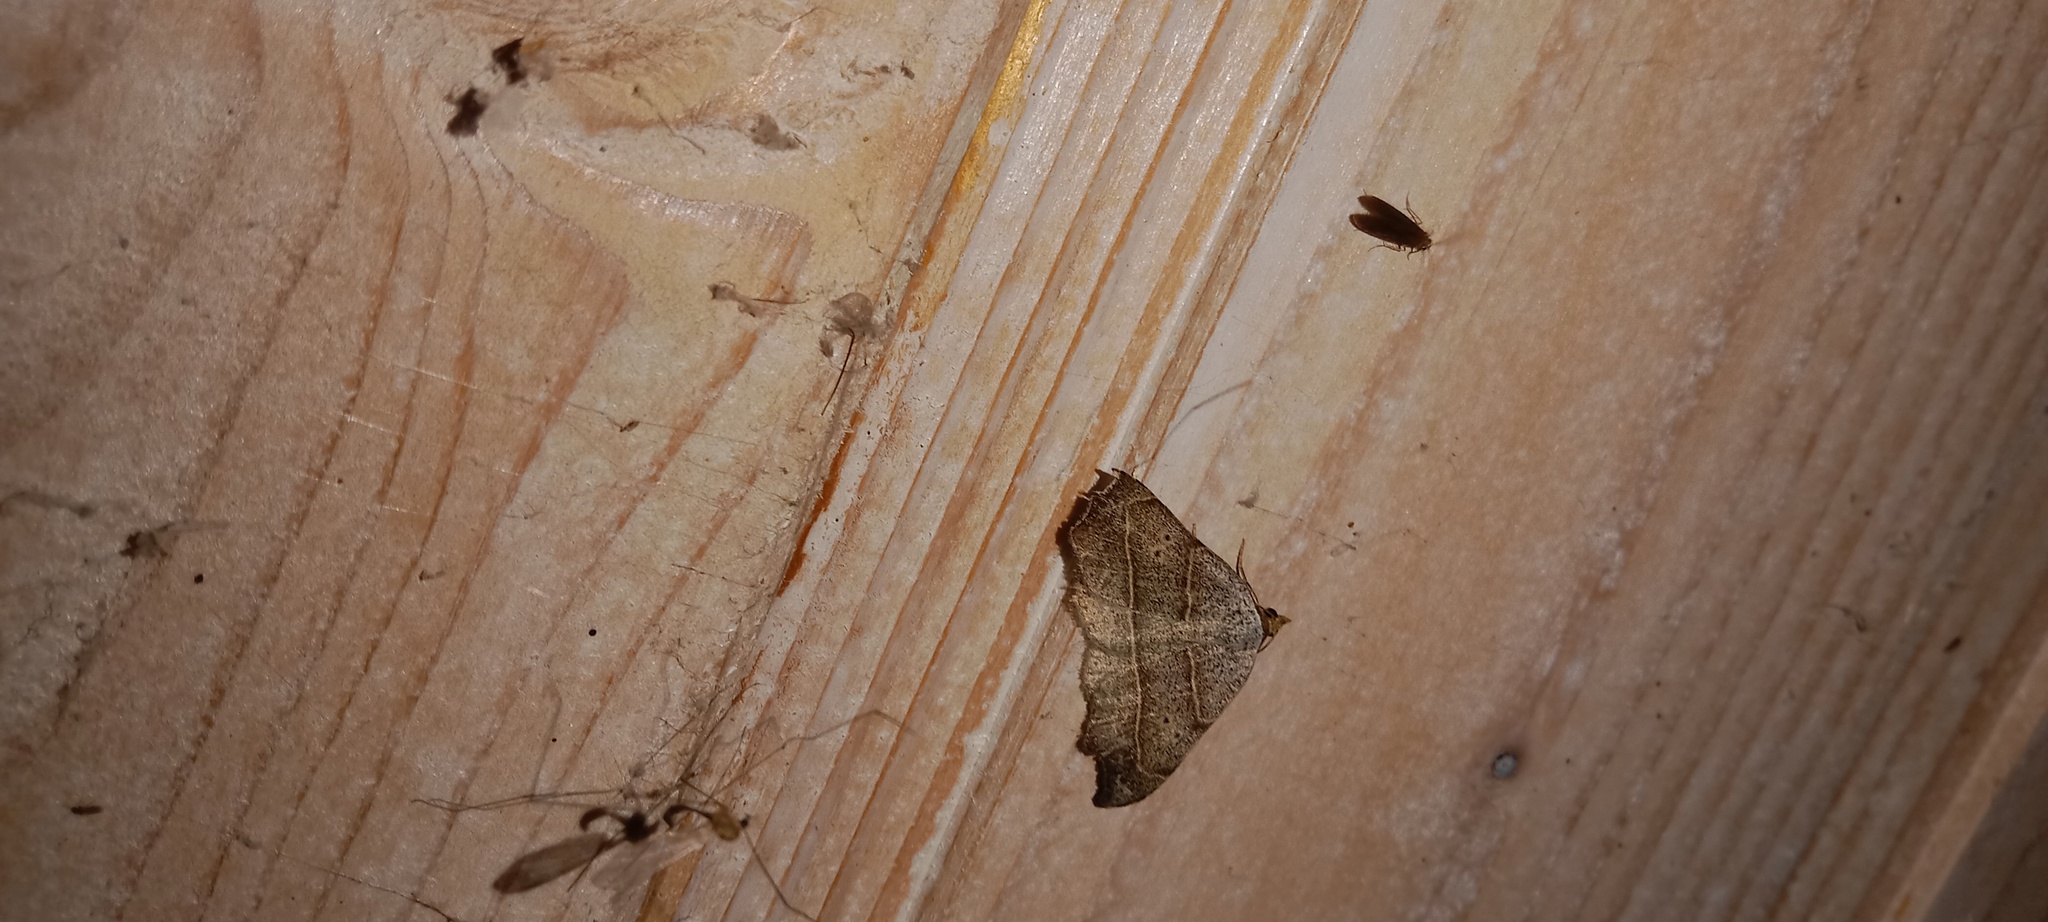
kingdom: Animalia
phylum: Arthropoda
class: Insecta
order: Lepidoptera
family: Erebidae
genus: Laspeyria
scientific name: Laspeyria flexula
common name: Beautiful hook-tip
